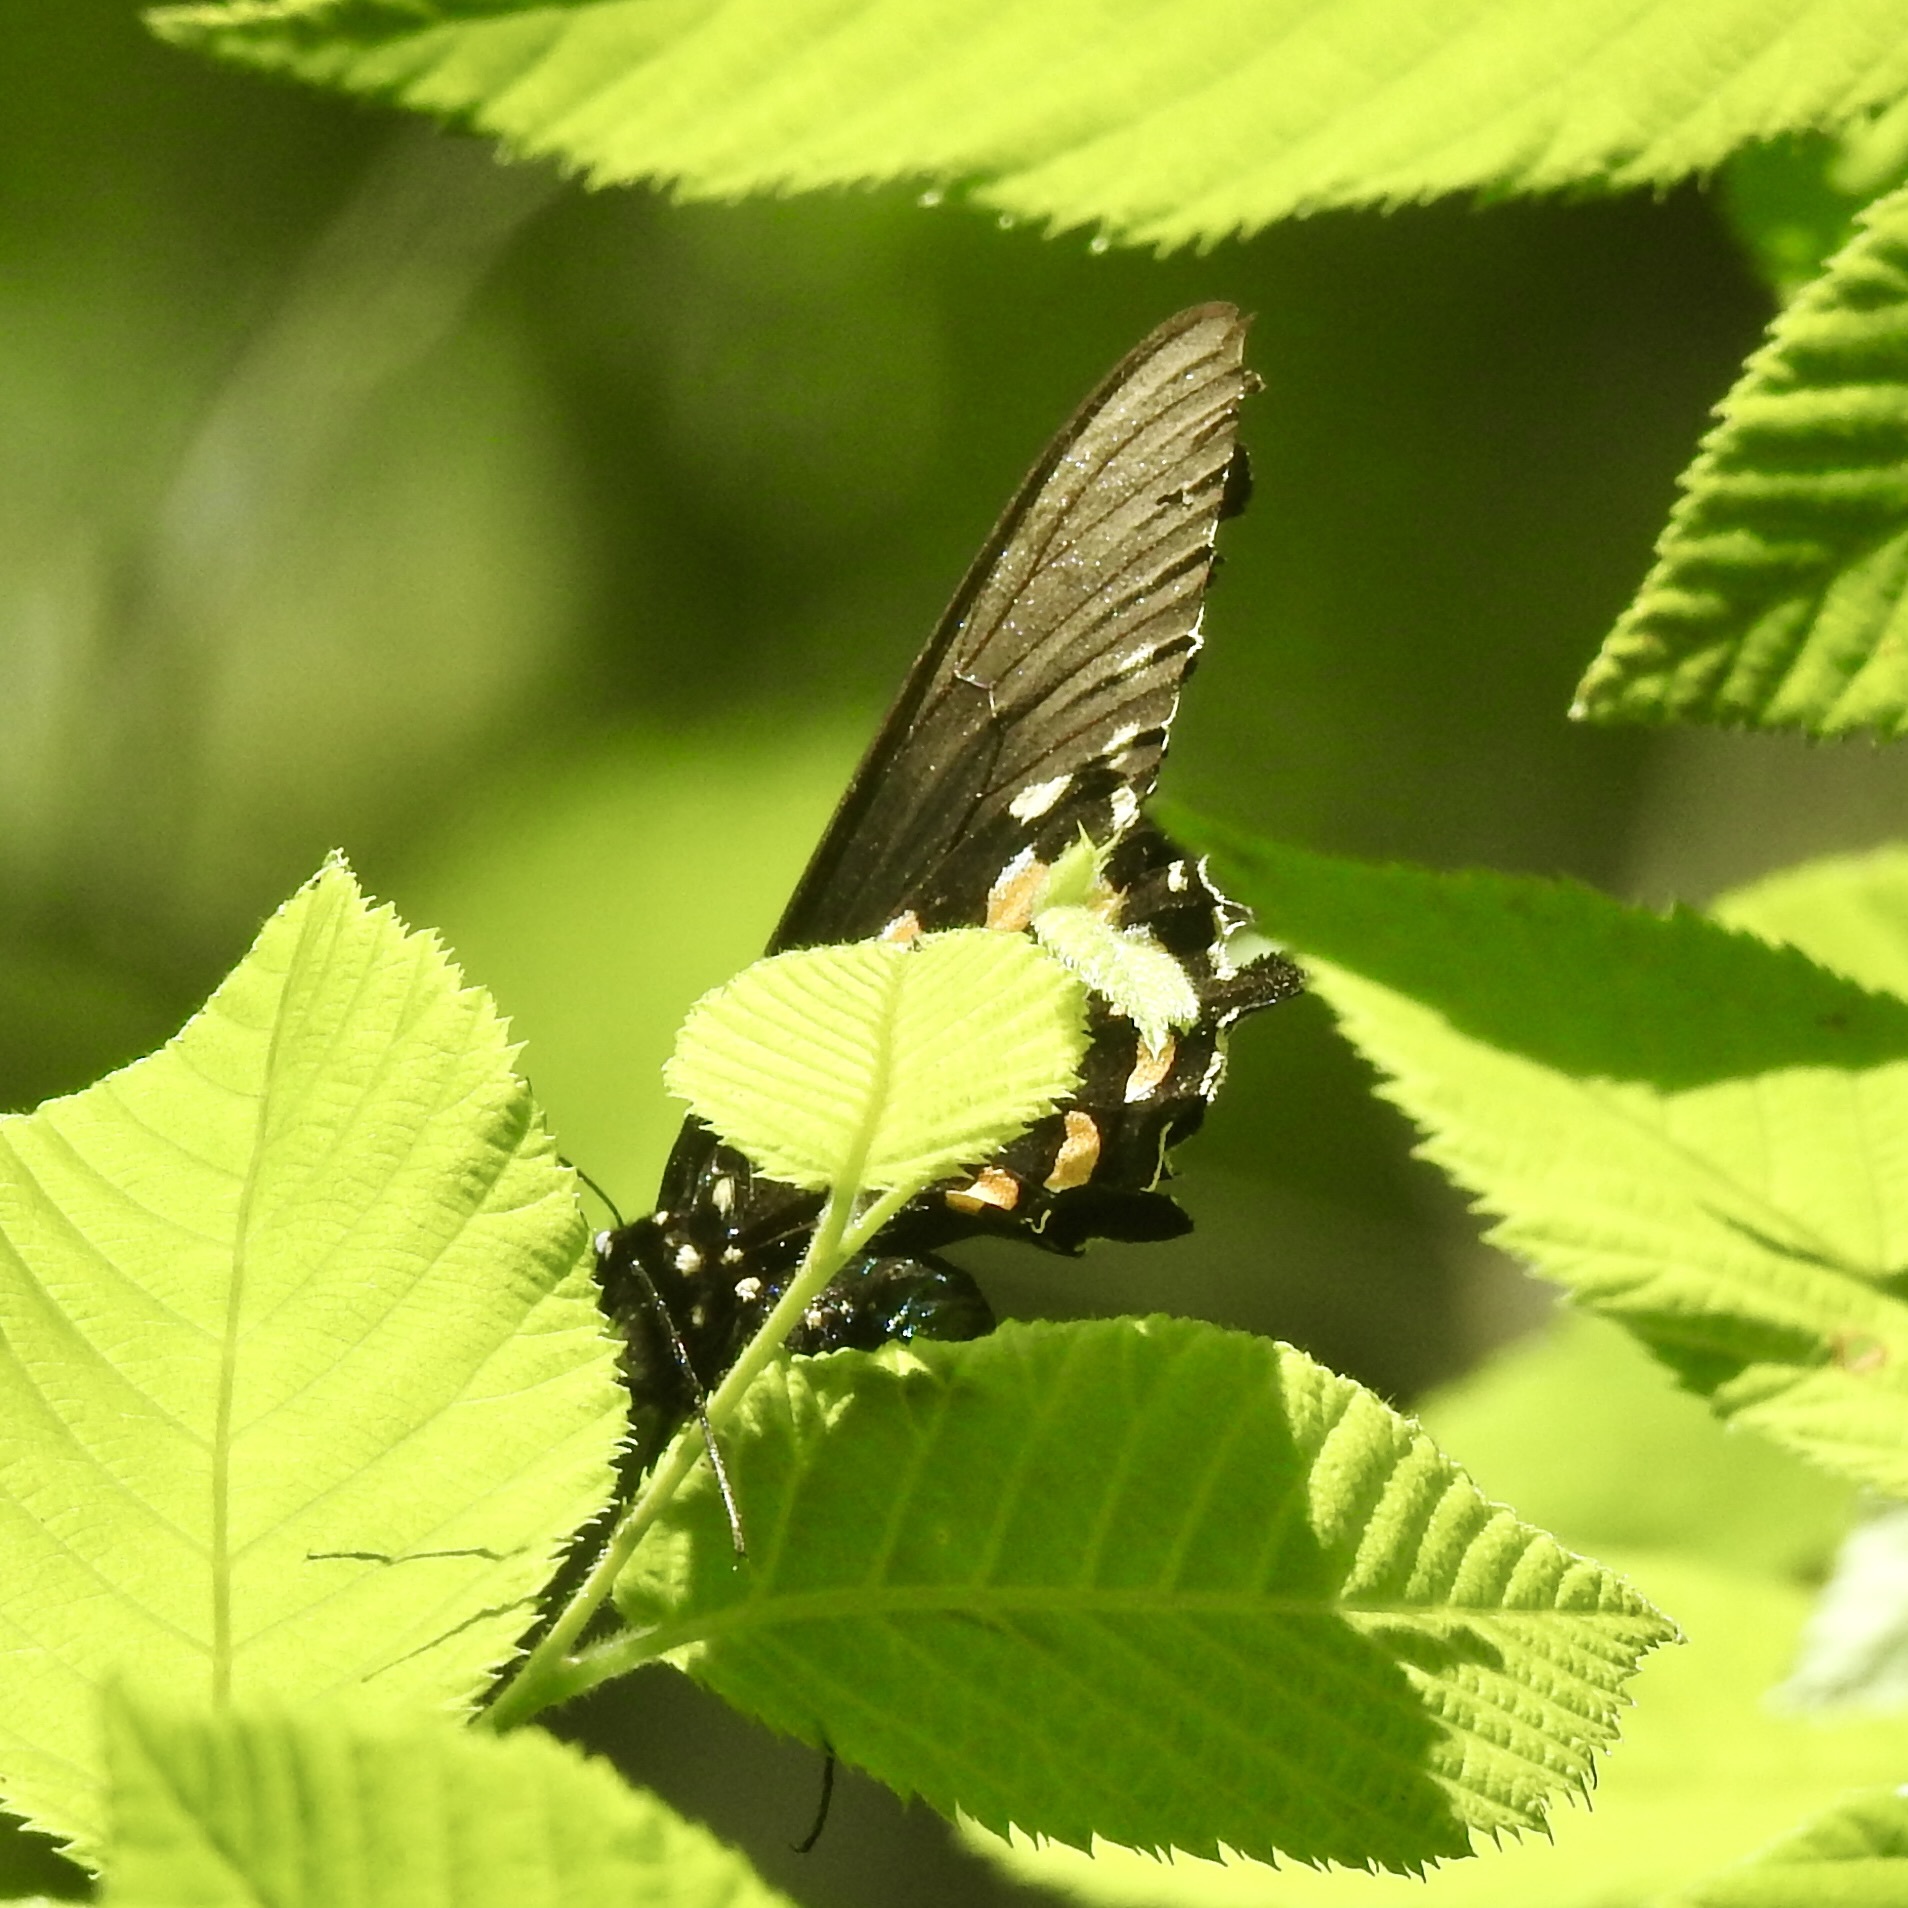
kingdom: Animalia
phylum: Arthropoda
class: Insecta
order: Lepidoptera
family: Papilionidae
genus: Battus
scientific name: Battus philenor
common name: Pipevine swallowtail
